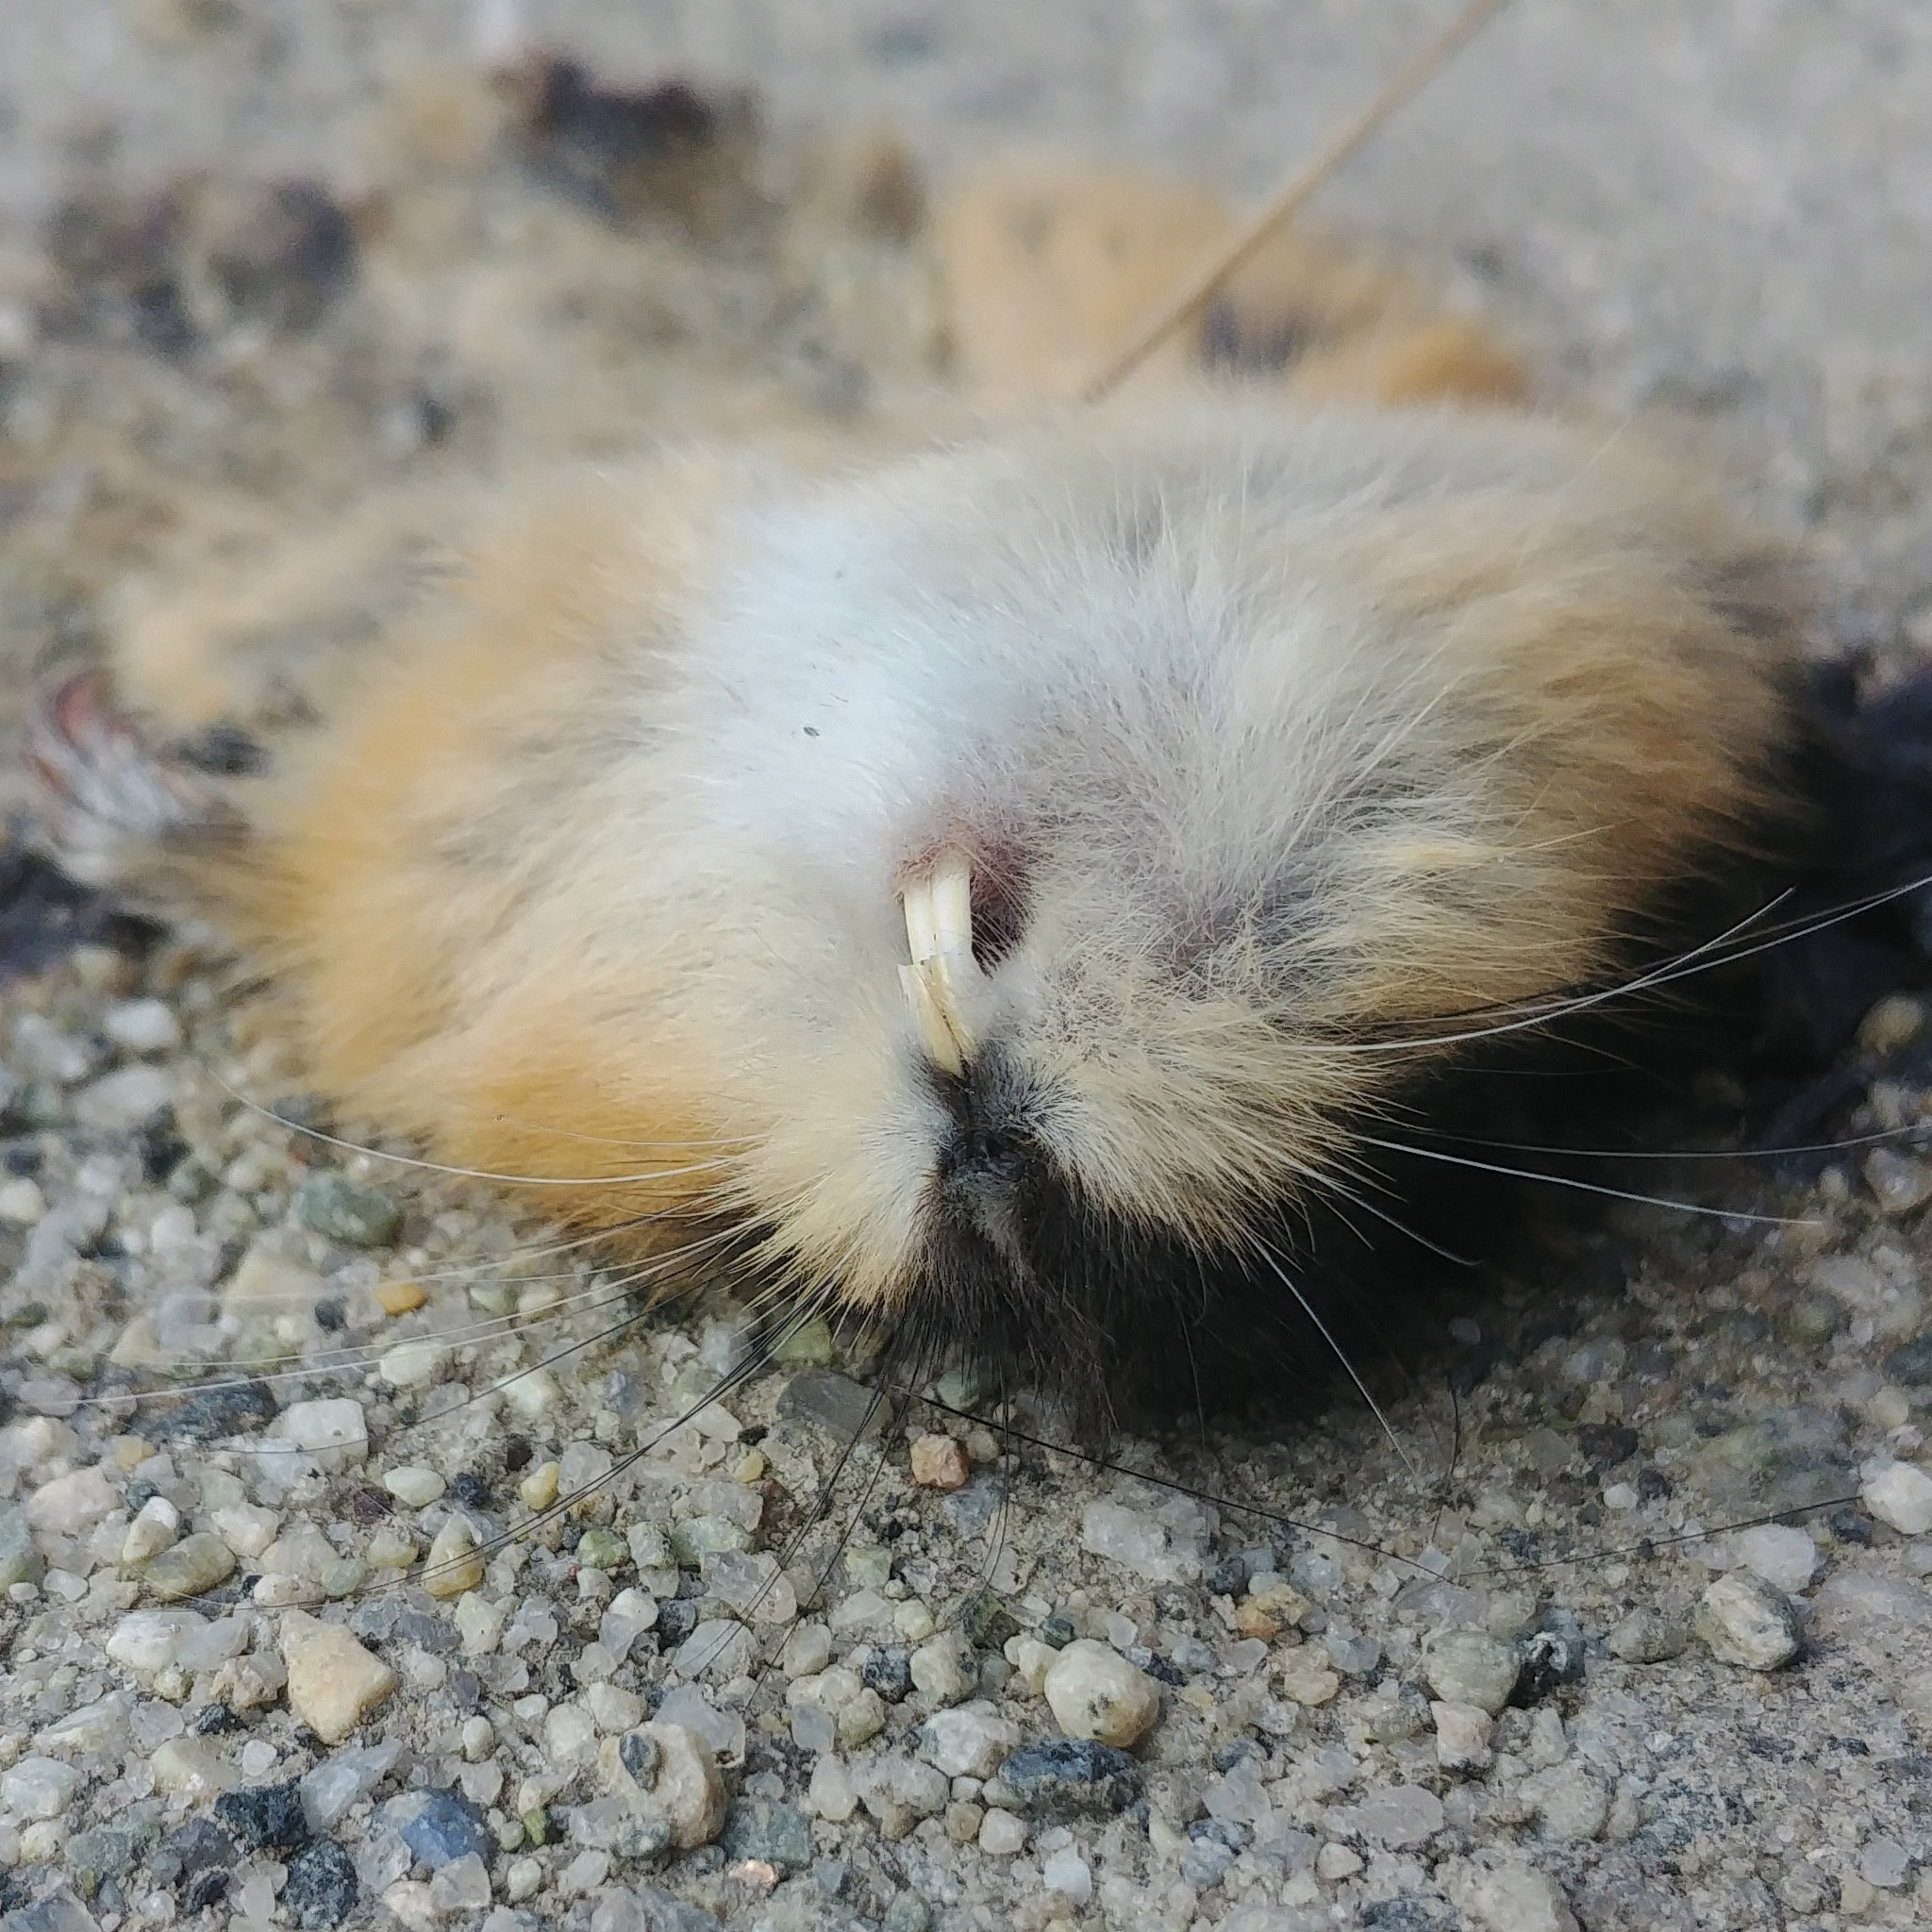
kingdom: Animalia
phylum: Chordata
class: Mammalia
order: Rodentia
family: Cricetidae
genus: Lemmus
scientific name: Lemmus lemmus
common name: Norway lemming
